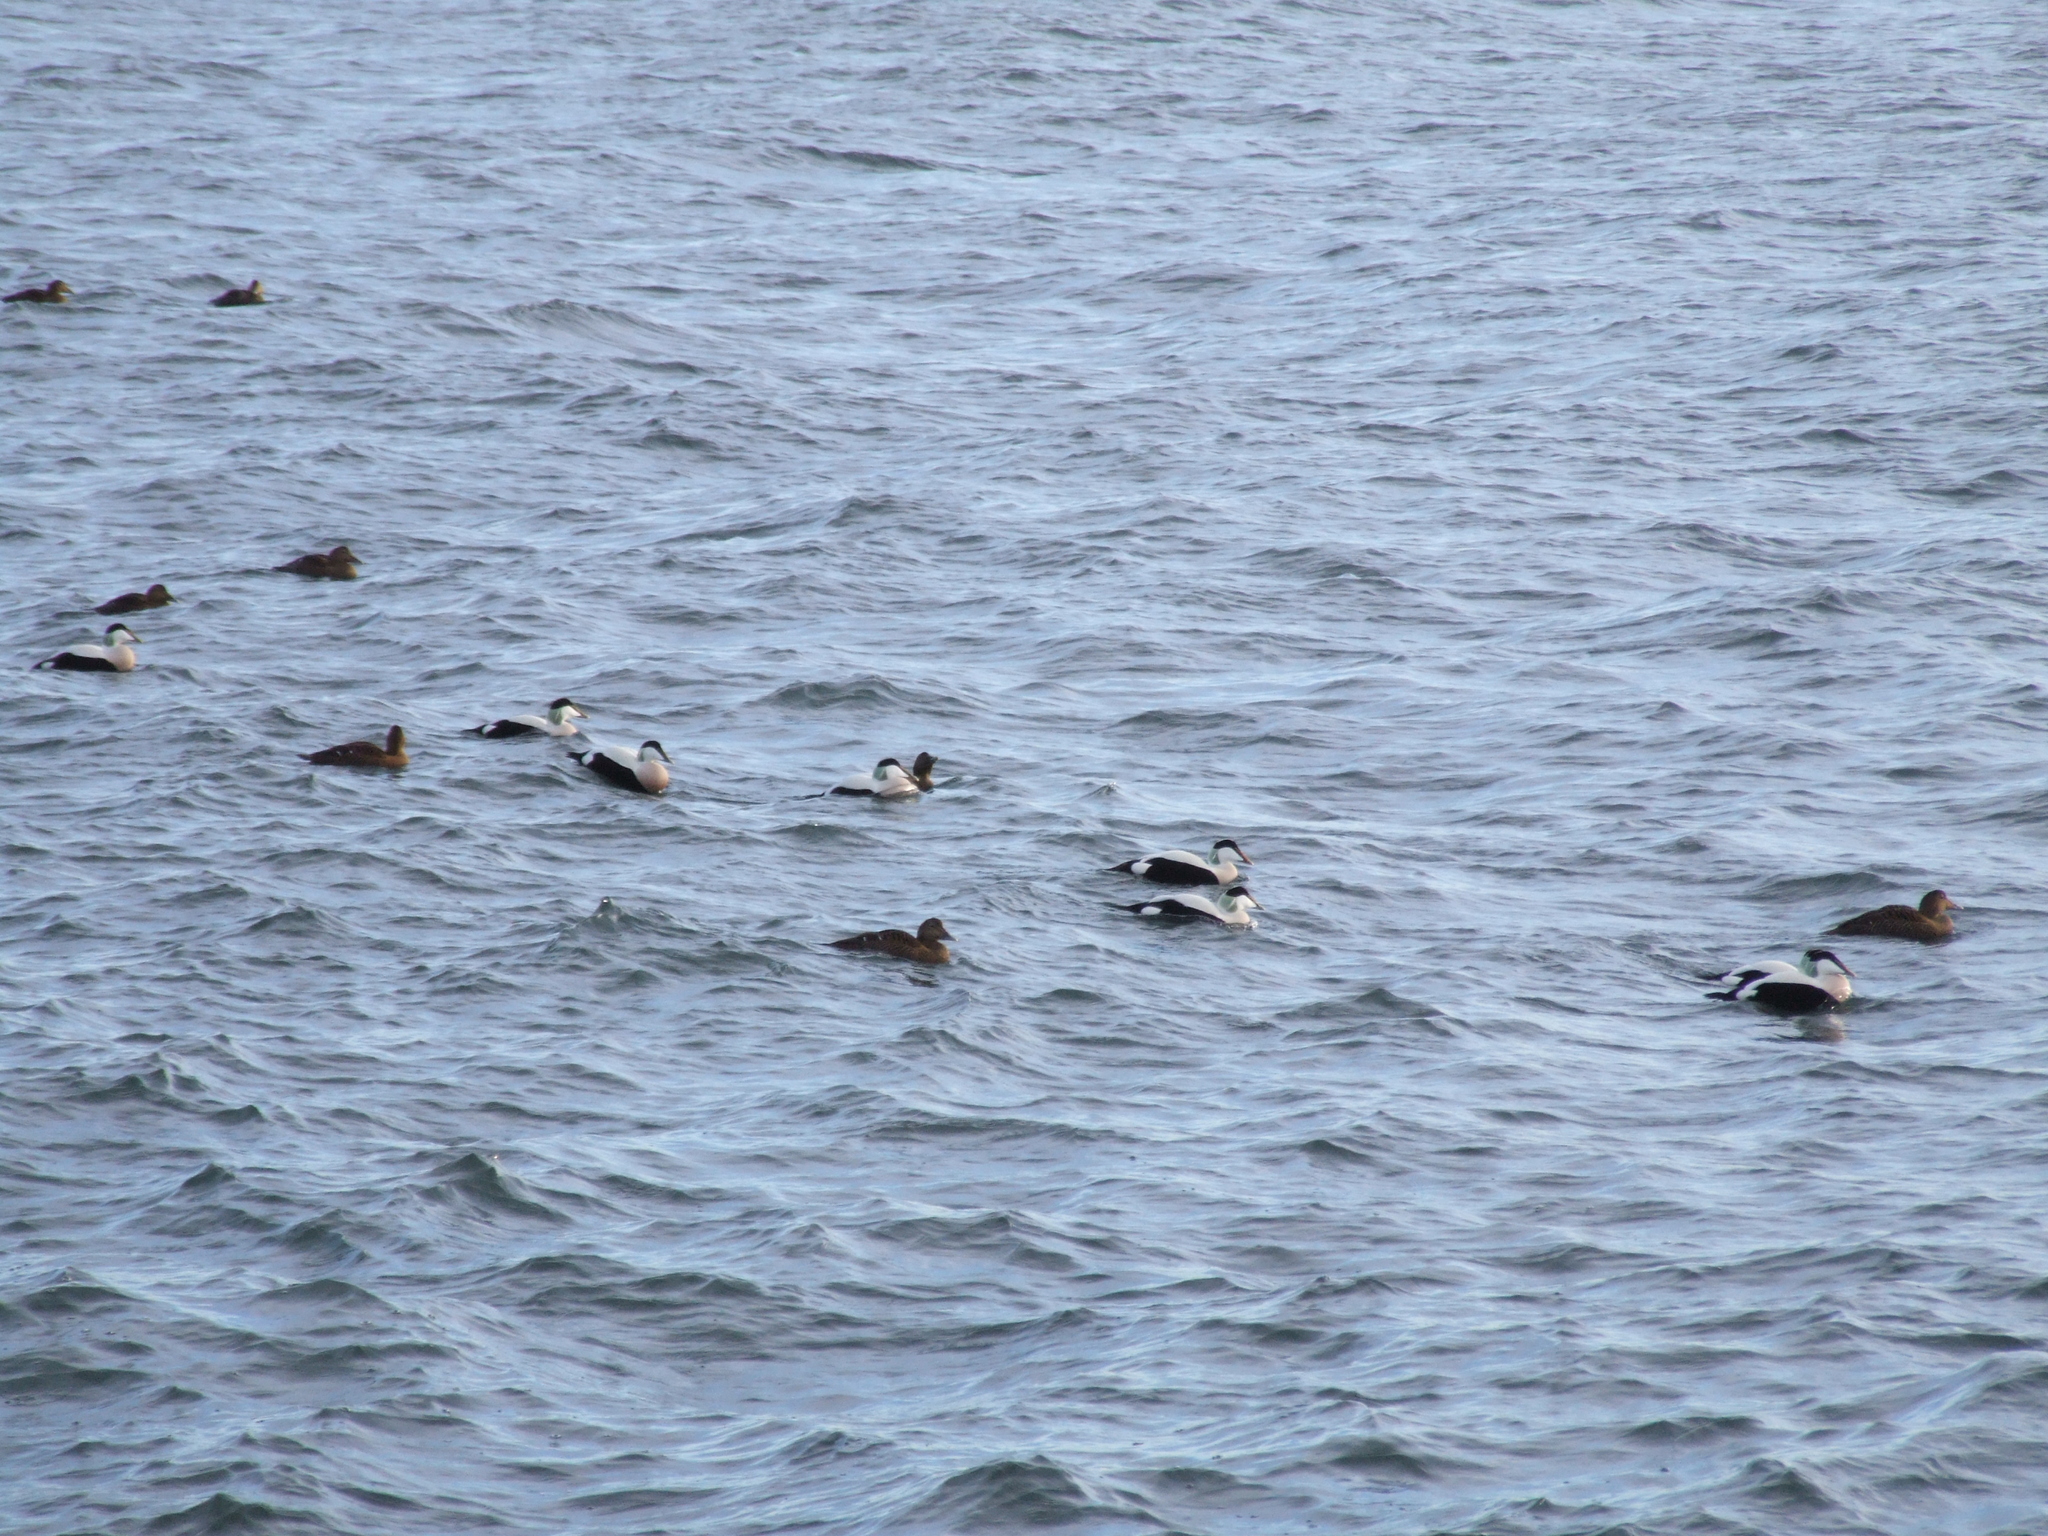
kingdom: Animalia
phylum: Chordata
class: Aves
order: Anseriformes
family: Anatidae
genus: Somateria
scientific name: Somateria mollissima
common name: Common eider
